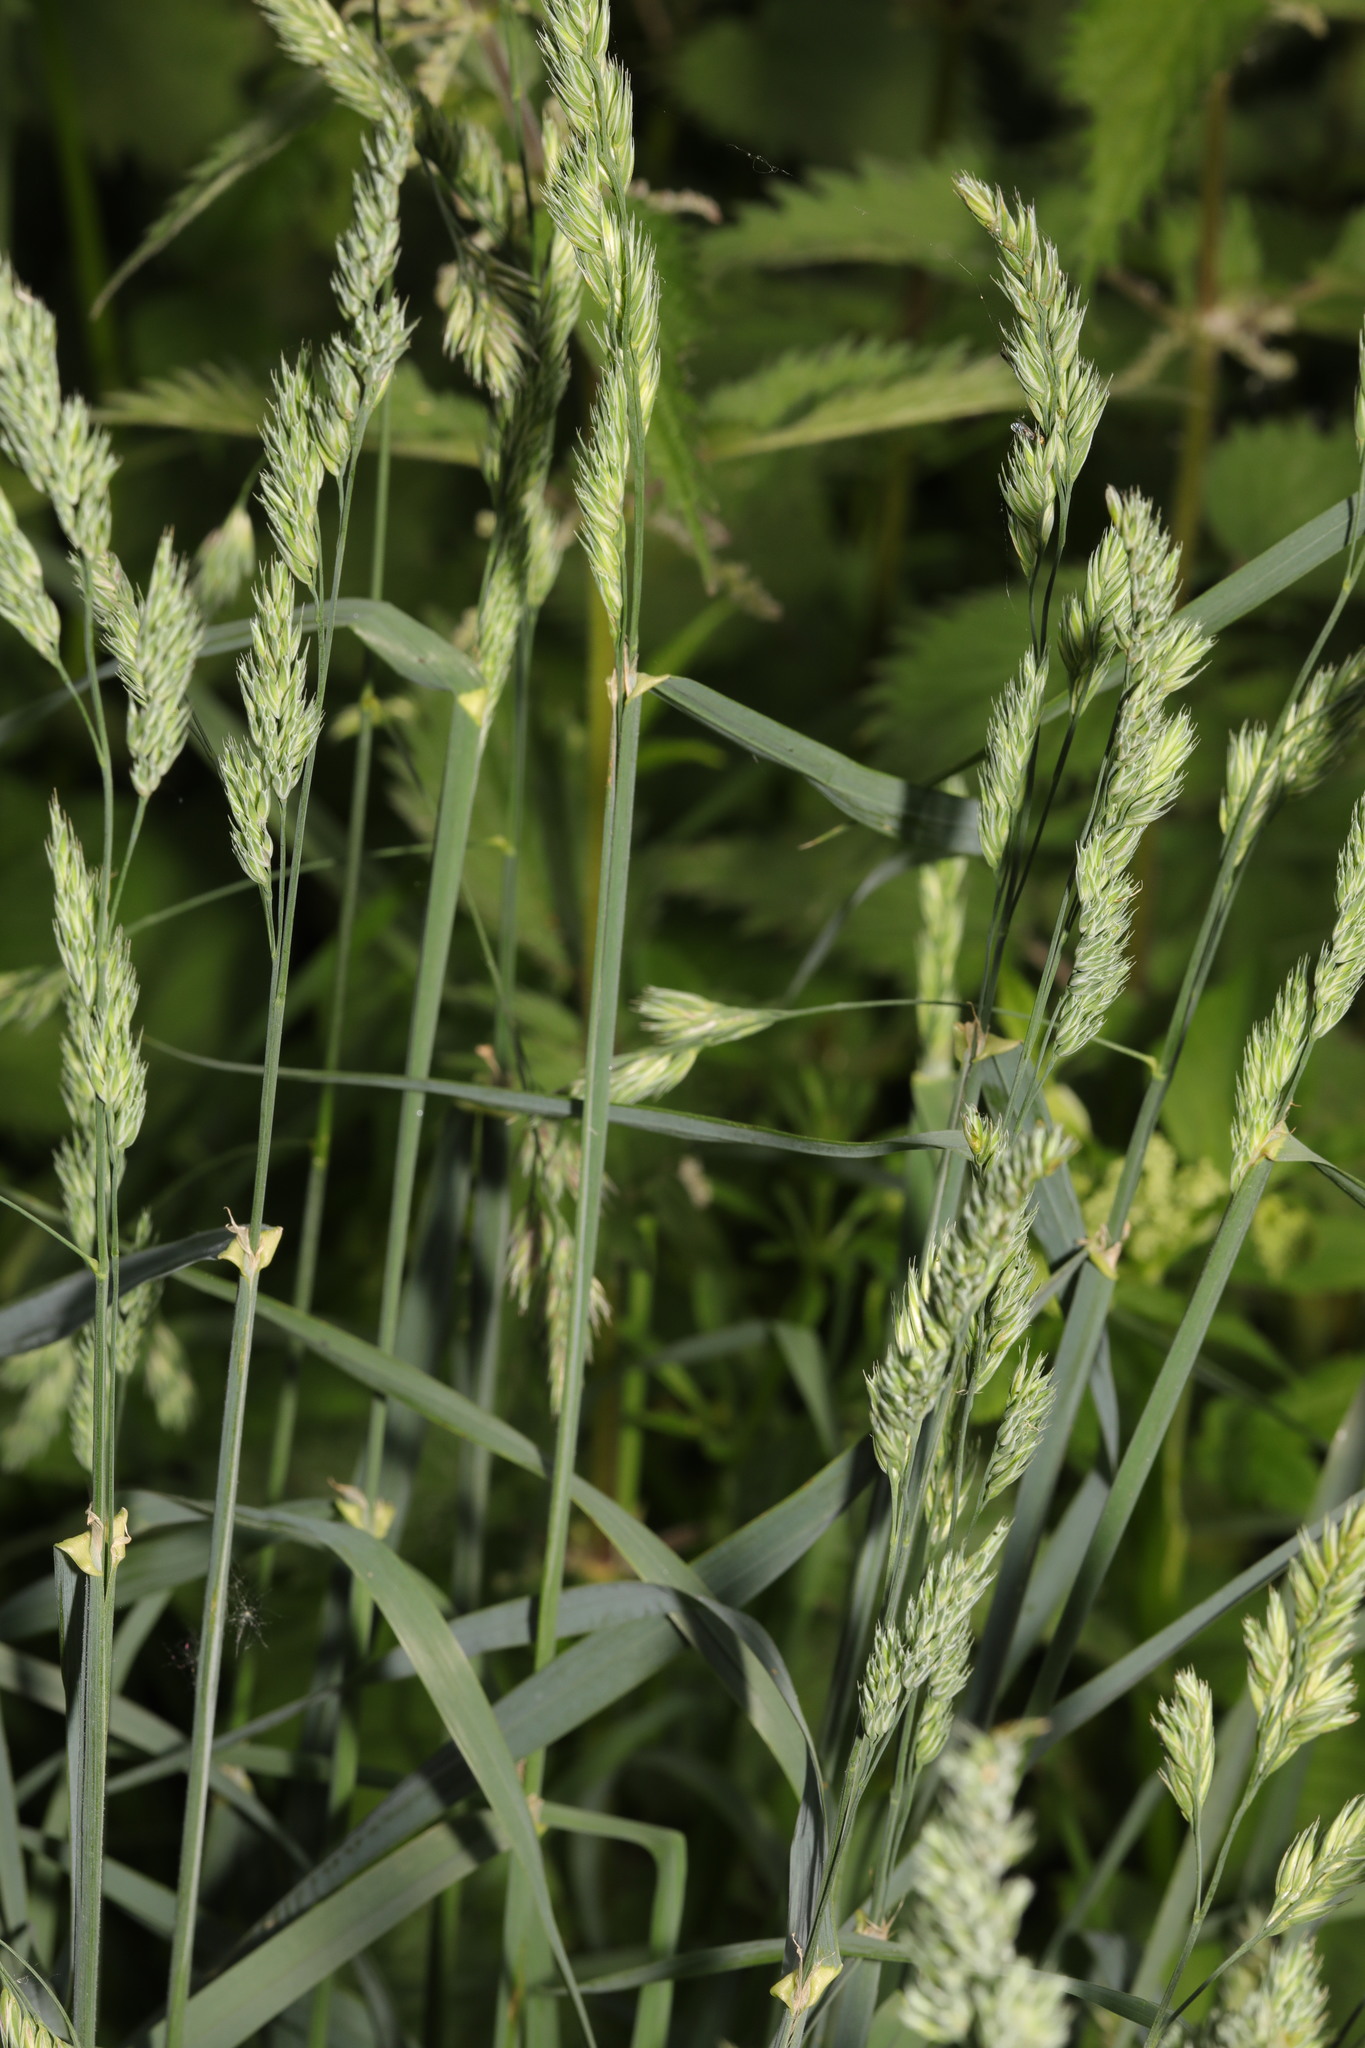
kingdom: Plantae
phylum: Tracheophyta
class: Liliopsida
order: Poales
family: Poaceae
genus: Dactylis
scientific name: Dactylis glomerata
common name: Orchardgrass
